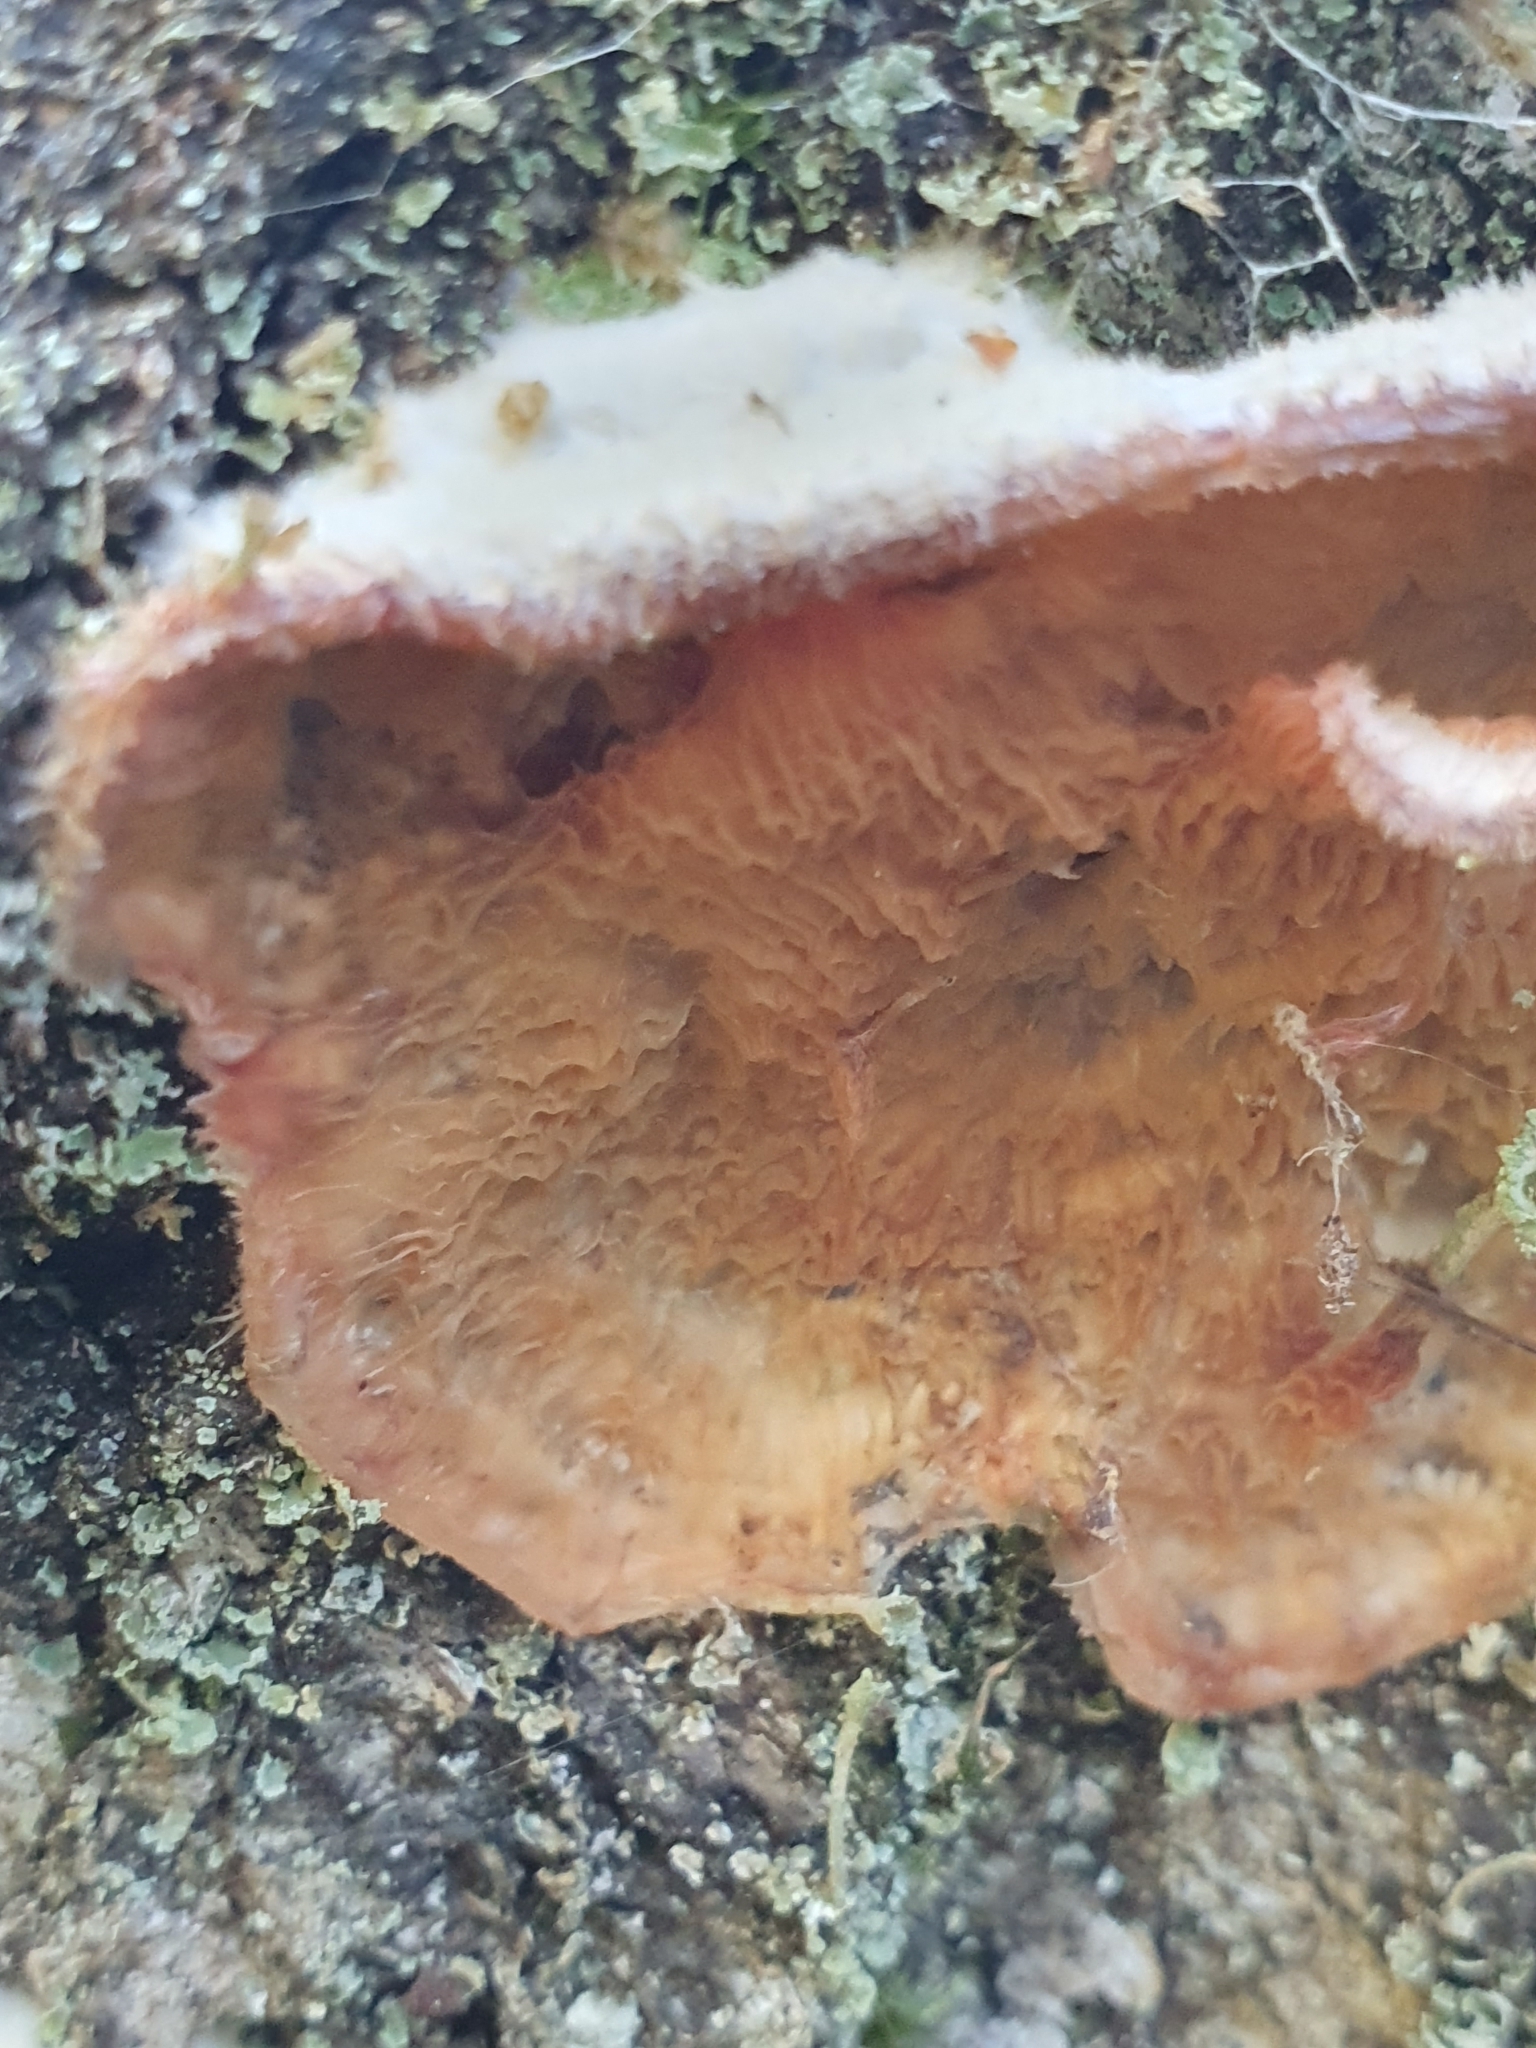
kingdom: Fungi
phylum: Basidiomycota
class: Agaricomycetes
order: Polyporales
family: Meruliaceae
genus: Phlebia
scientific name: Phlebia tremellosa
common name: Jelly rot
